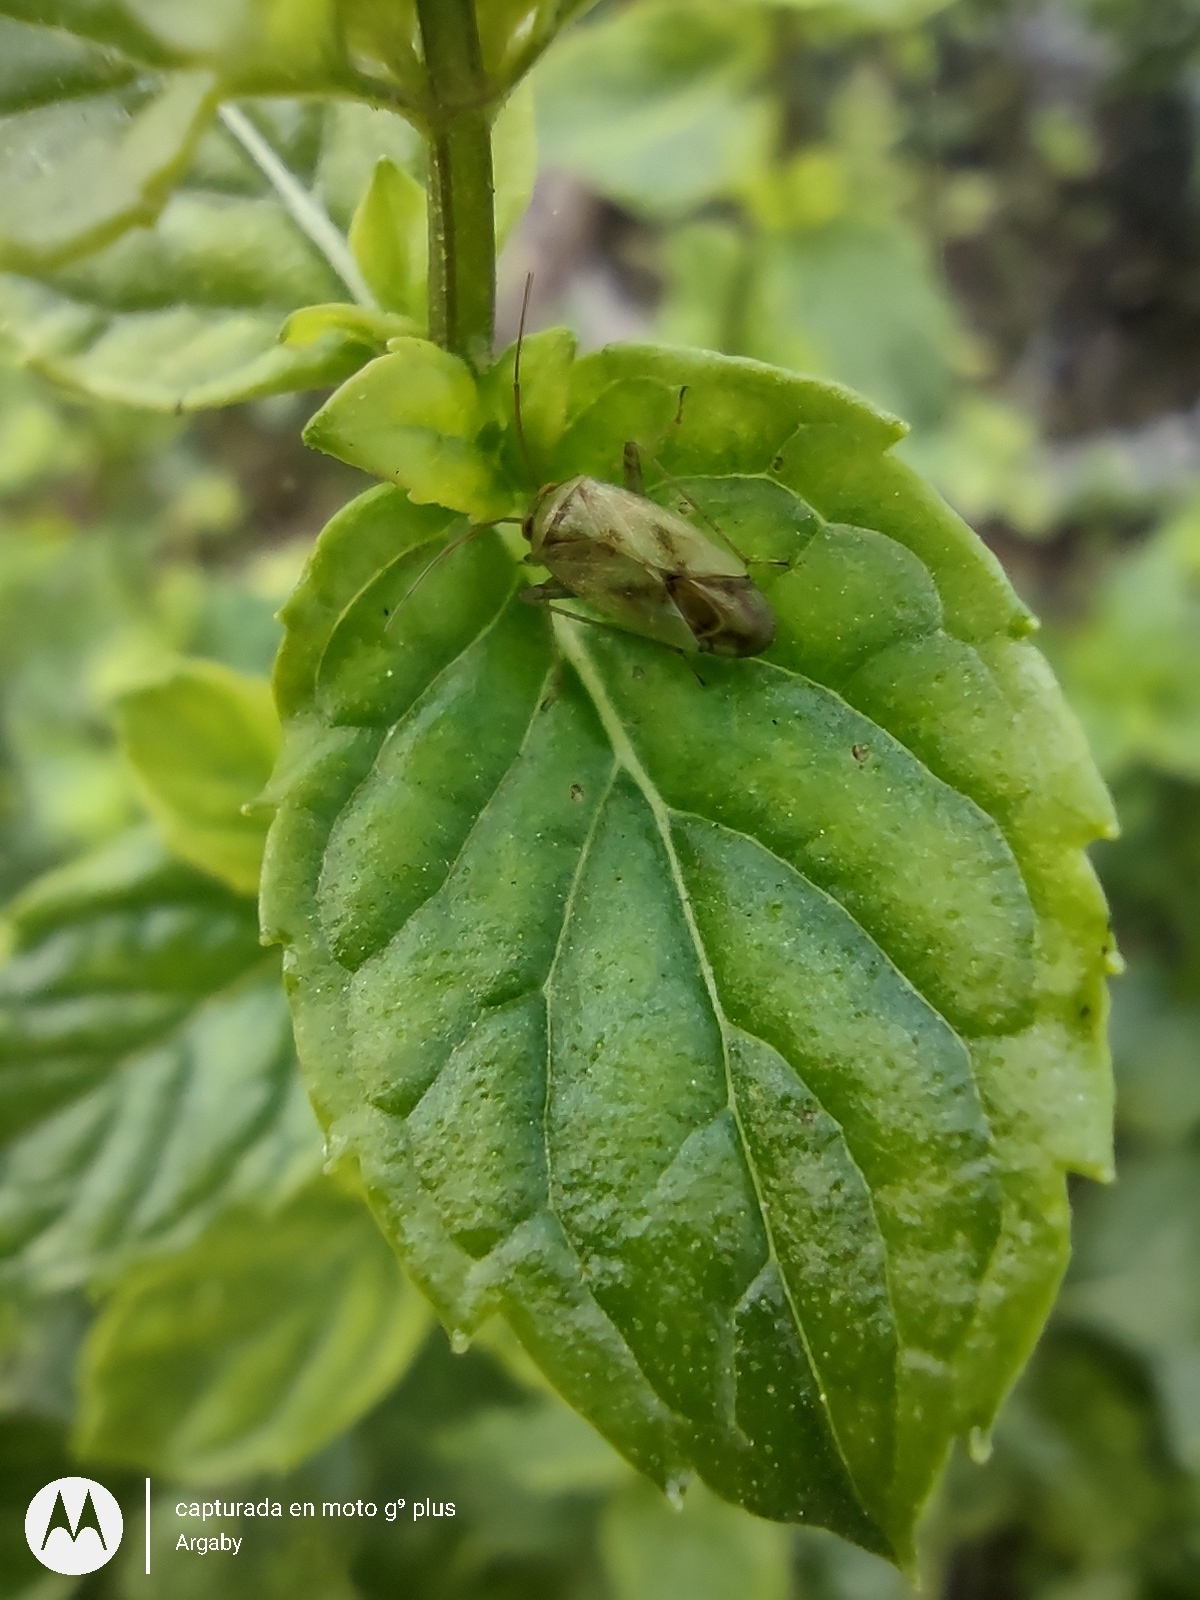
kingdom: Animalia
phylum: Arthropoda
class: Insecta
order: Hemiptera
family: Miridae
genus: Taylorilygus
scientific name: Taylorilygus apicalis
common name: Plant bug
